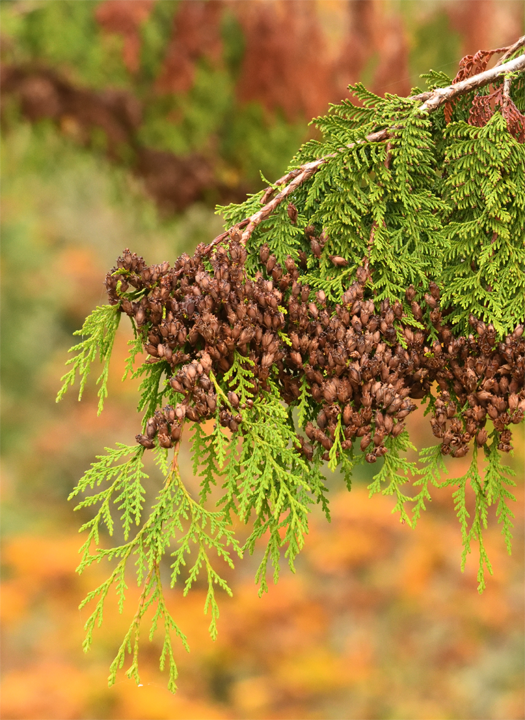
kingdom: Plantae
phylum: Tracheophyta
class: Pinopsida
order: Pinales
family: Cupressaceae
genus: Thuja
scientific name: Thuja plicata
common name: Western red-cedar
